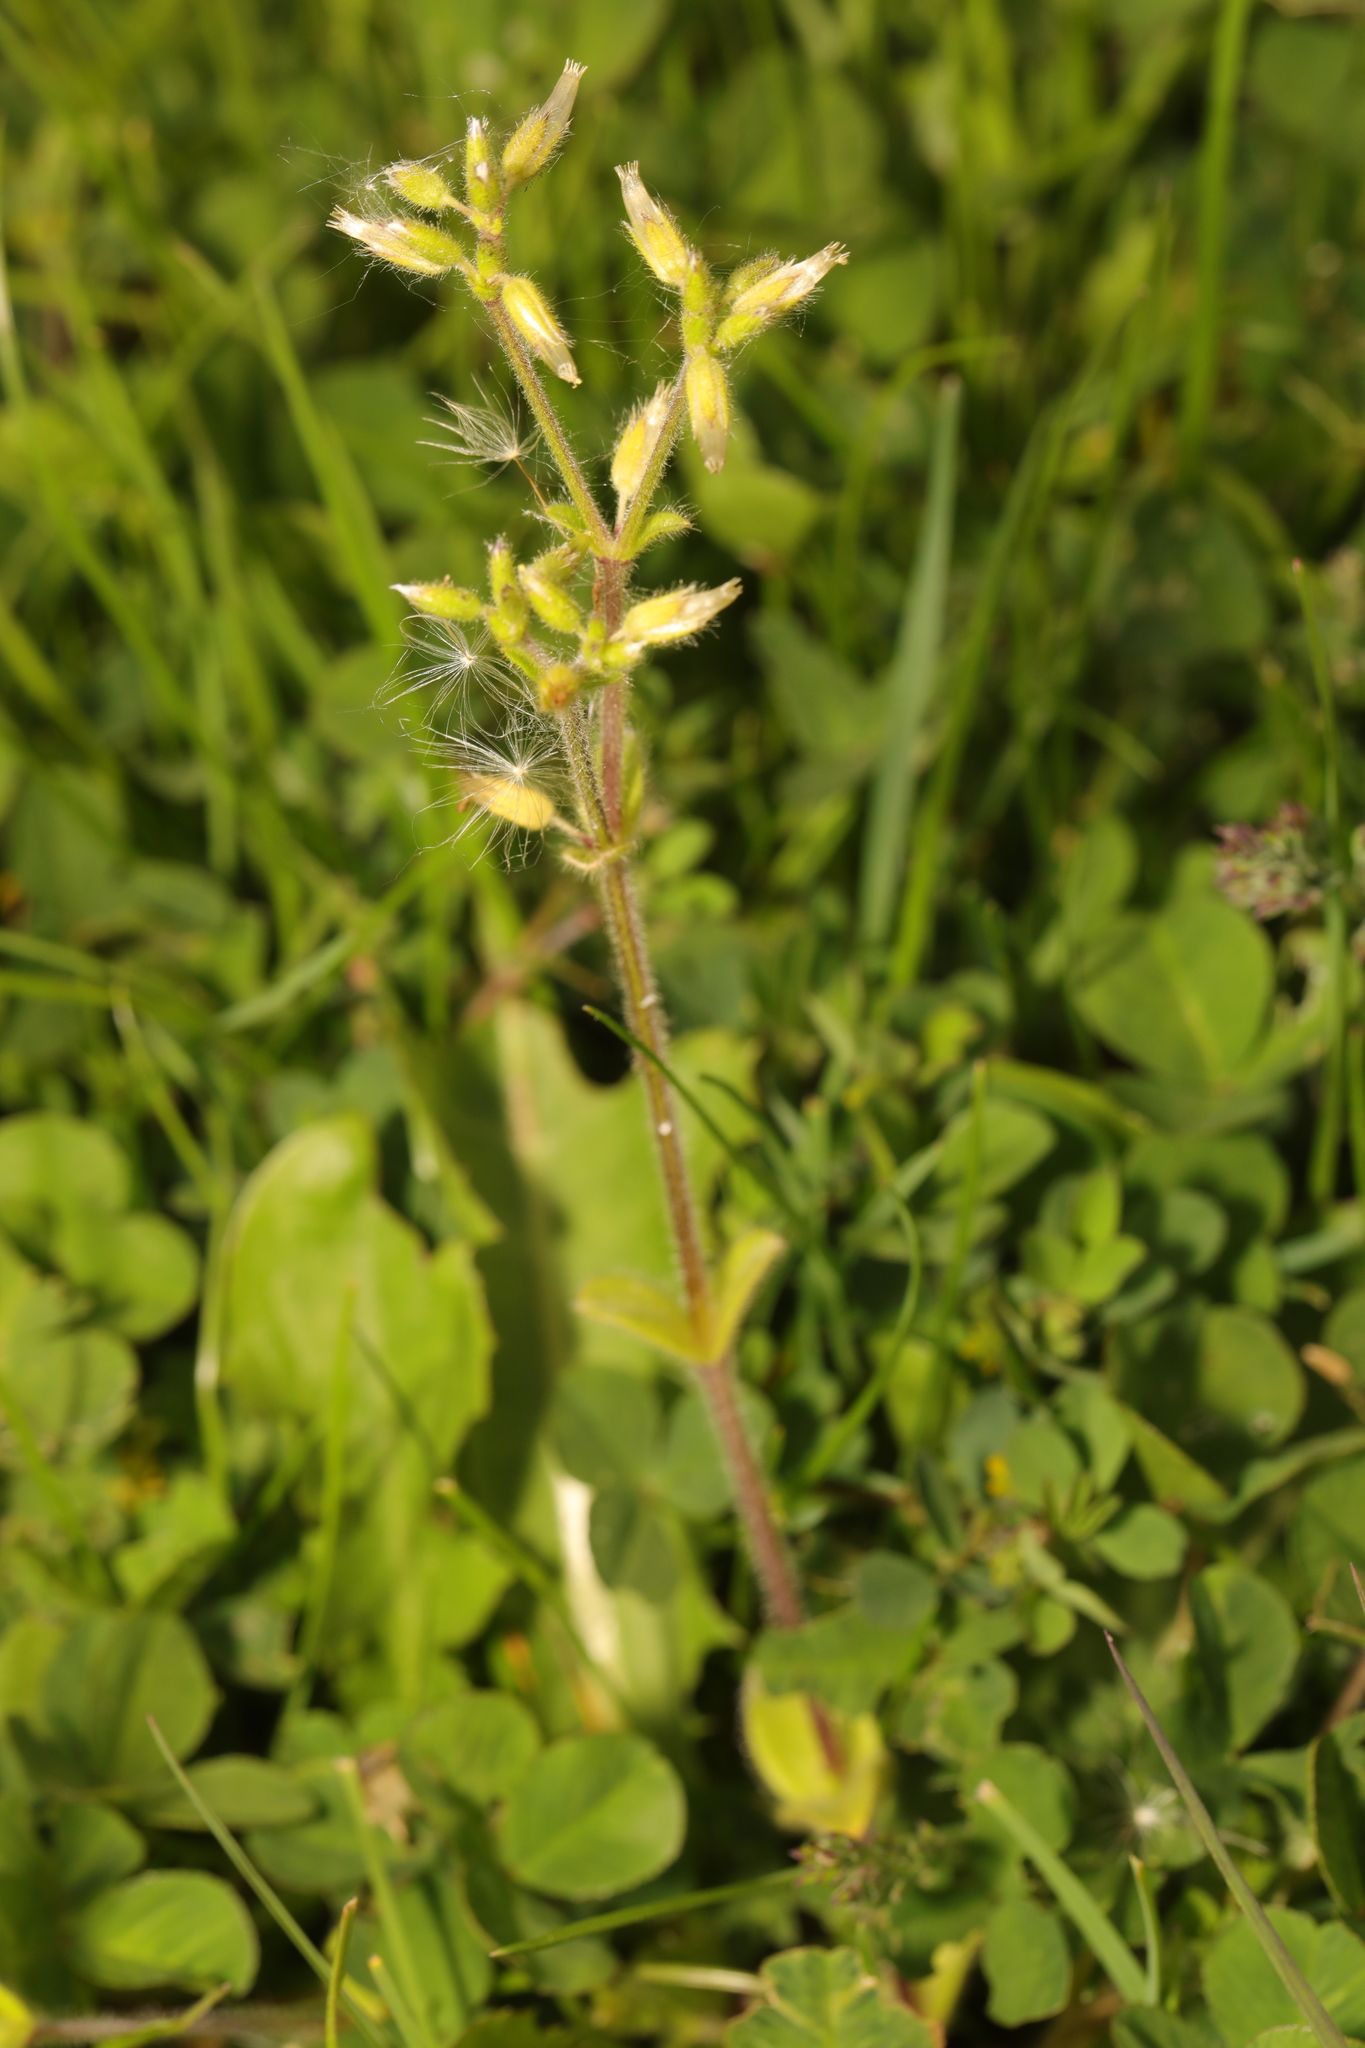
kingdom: Plantae
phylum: Tracheophyta
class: Magnoliopsida
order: Caryophyllales
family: Caryophyllaceae
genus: Cerastium
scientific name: Cerastium glomeratum
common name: Sticky chickweed
